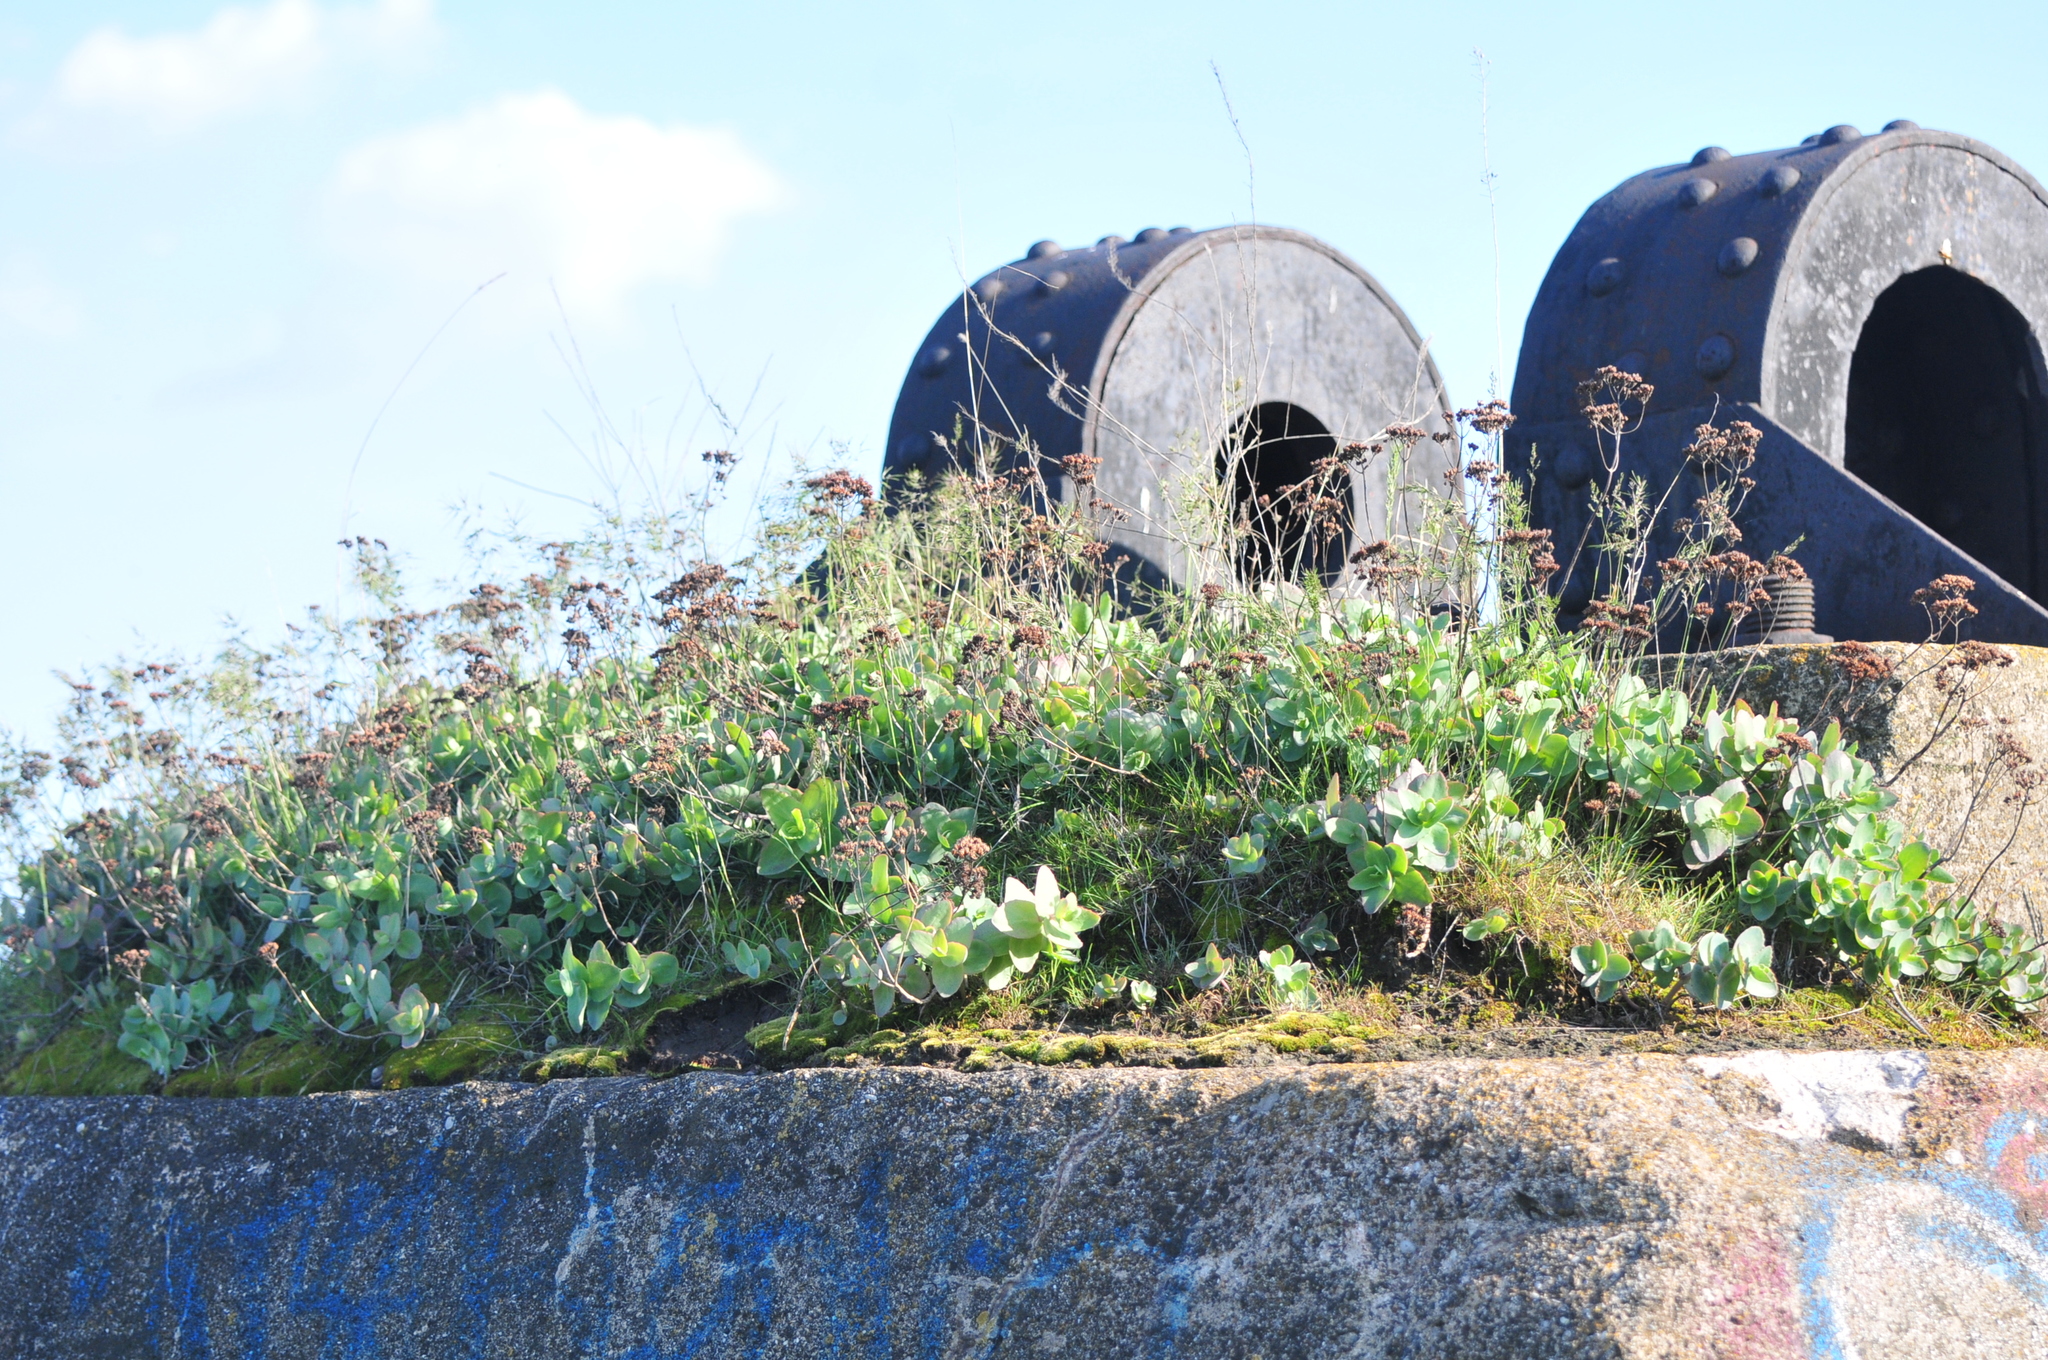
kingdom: Plantae
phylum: Tracheophyta
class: Magnoliopsida
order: Saxifragales
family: Crassulaceae
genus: Hylotelephium
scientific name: Hylotelephium maximum
